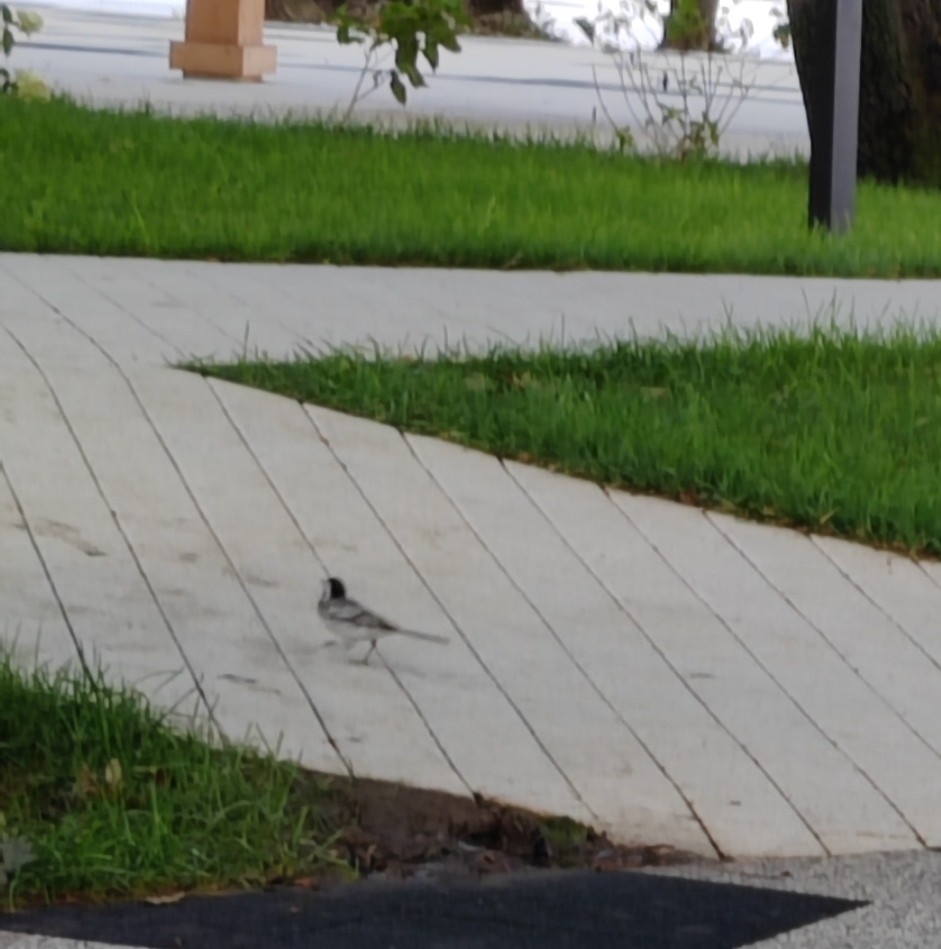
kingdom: Animalia
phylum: Chordata
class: Aves
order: Passeriformes
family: Motacillidae
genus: Motacilla
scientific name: Motacilla alba
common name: White wagtail
